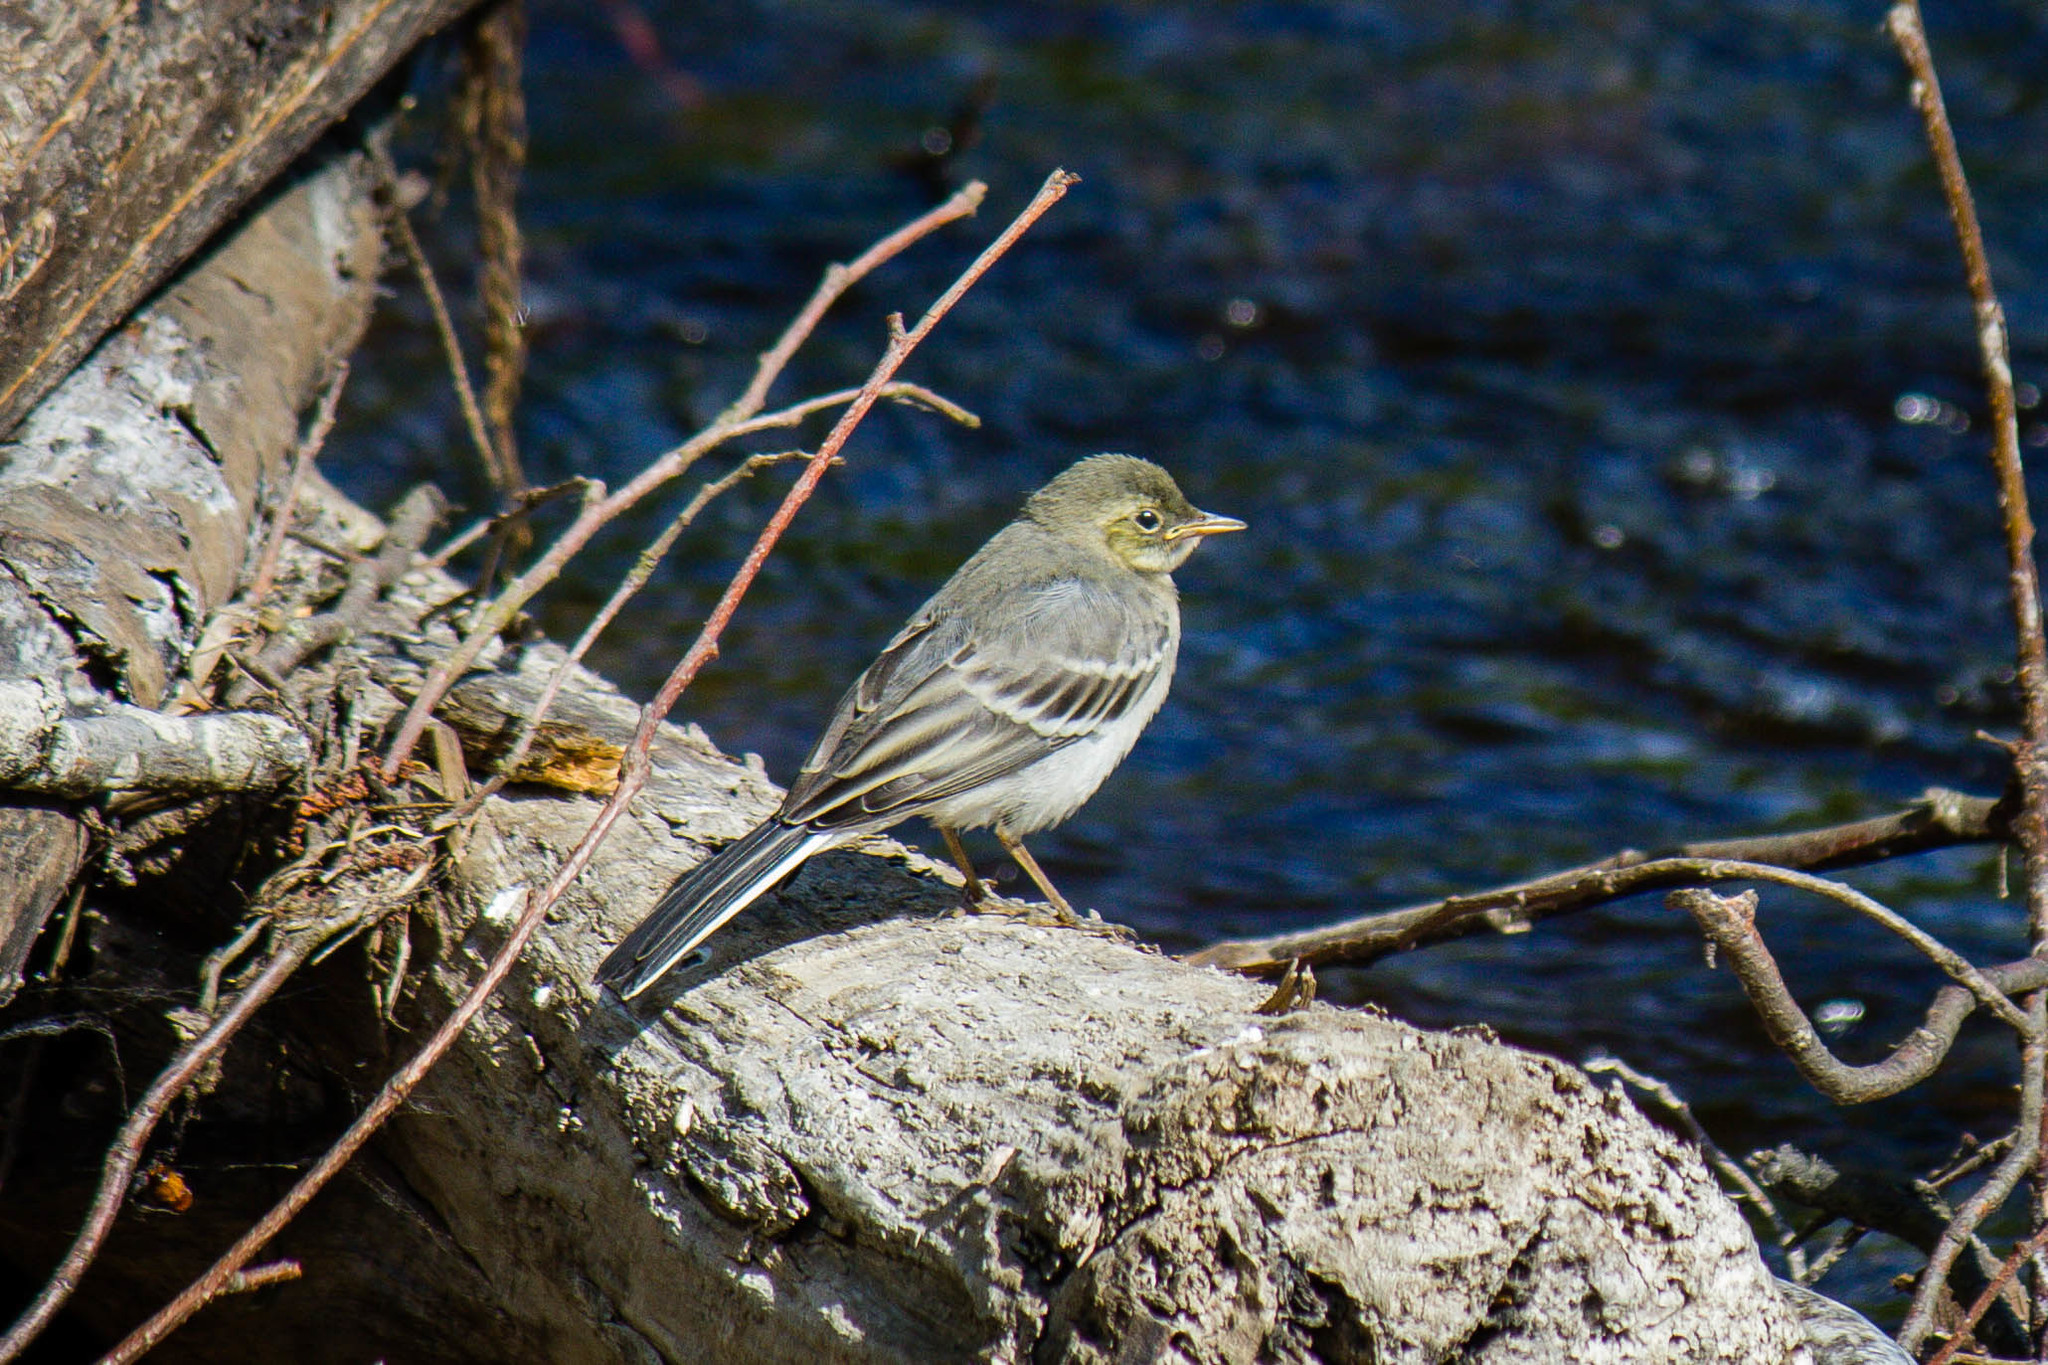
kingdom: Animalia
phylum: Chordata
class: Aves
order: Passeriformes
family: Motacillidae
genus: Motacilla
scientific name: Motacilla alba
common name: White wagtail
